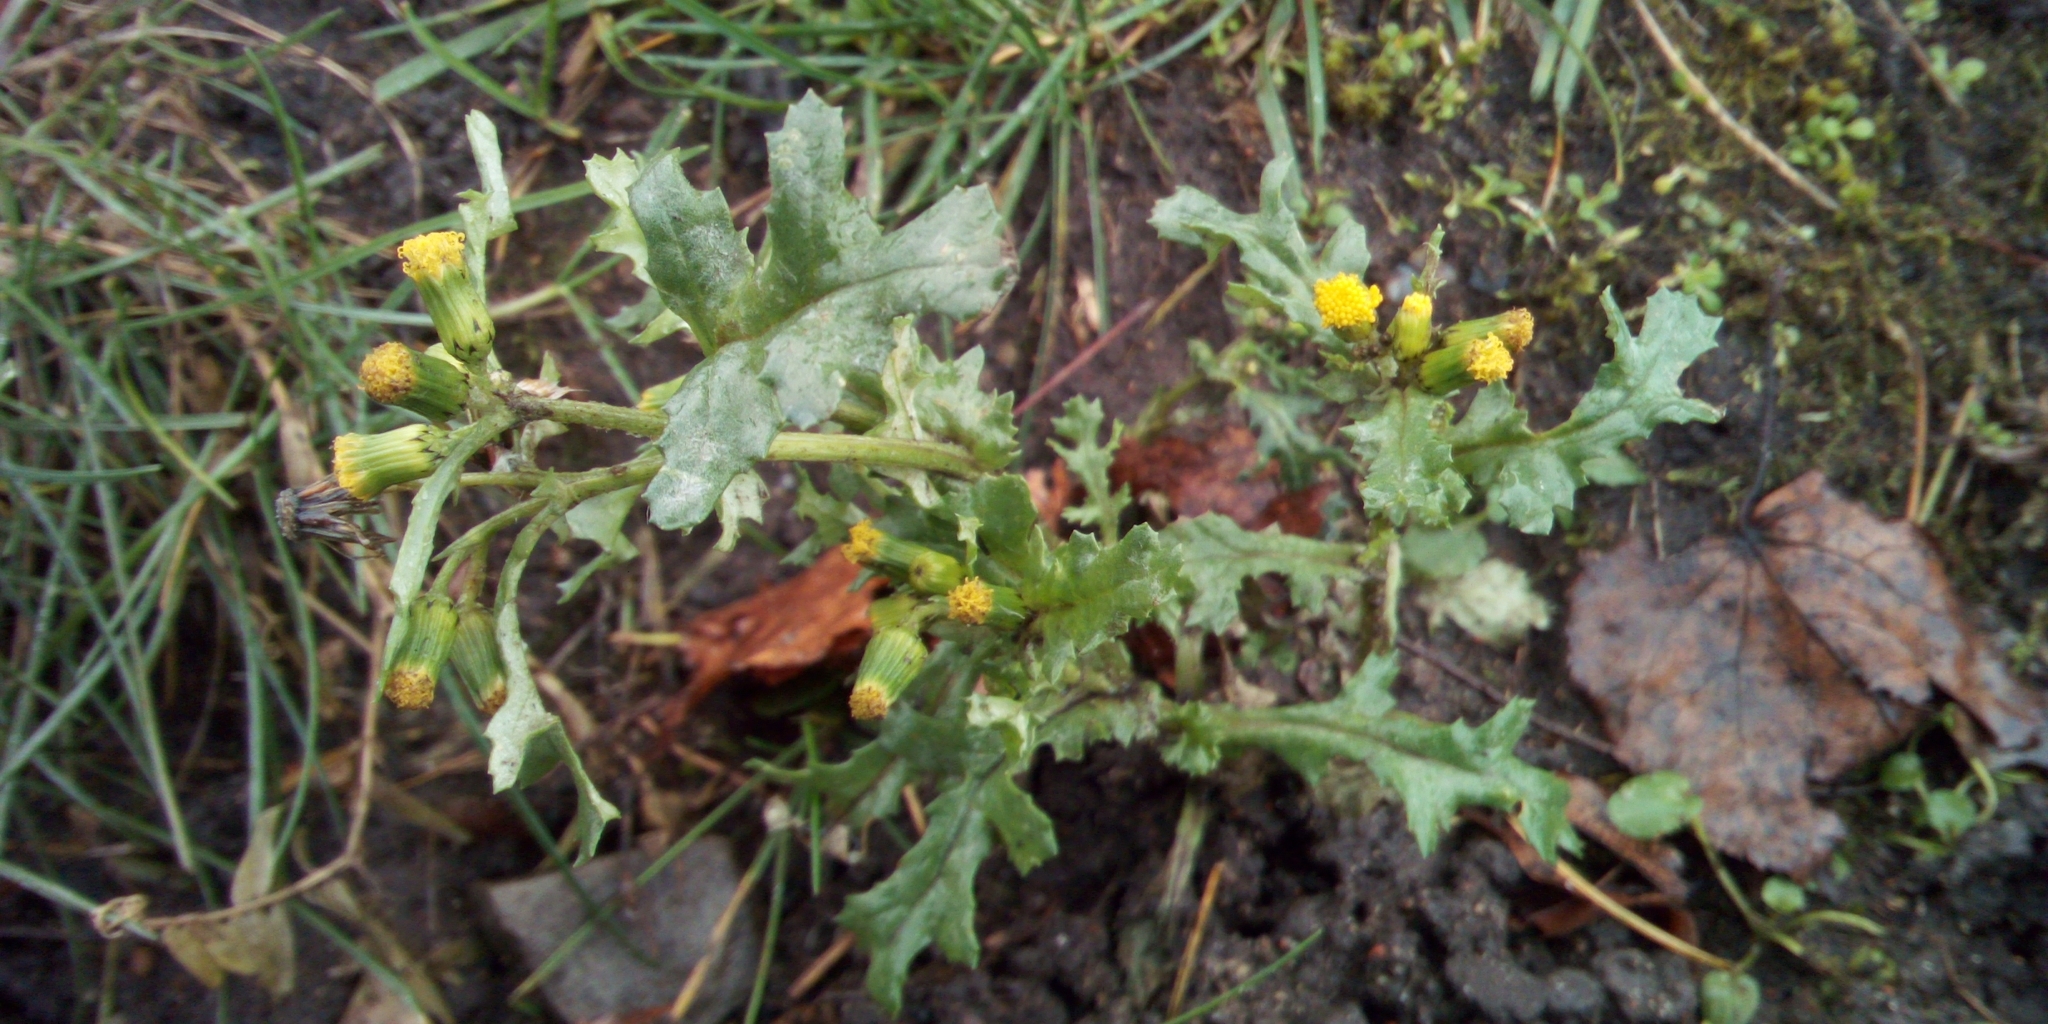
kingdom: Plantae
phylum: Tracheophyta
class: Magnoliopsida
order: Asterales
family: Asteraceae
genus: Senecio
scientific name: Senecio vulgaris
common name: Old-man-in-the-spring
